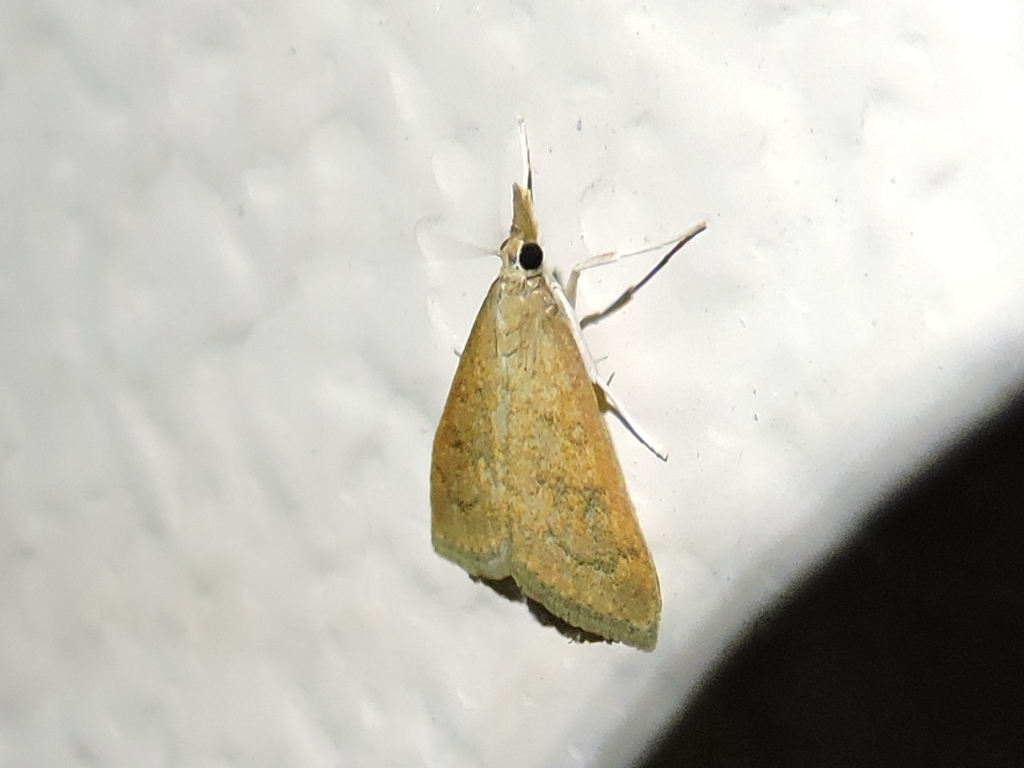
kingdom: Animalia
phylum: Arthropoda
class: Insecta
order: Lepidoptera
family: Crambidae
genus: Udea
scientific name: Udea rubigalis
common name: Celery leaftier moth
